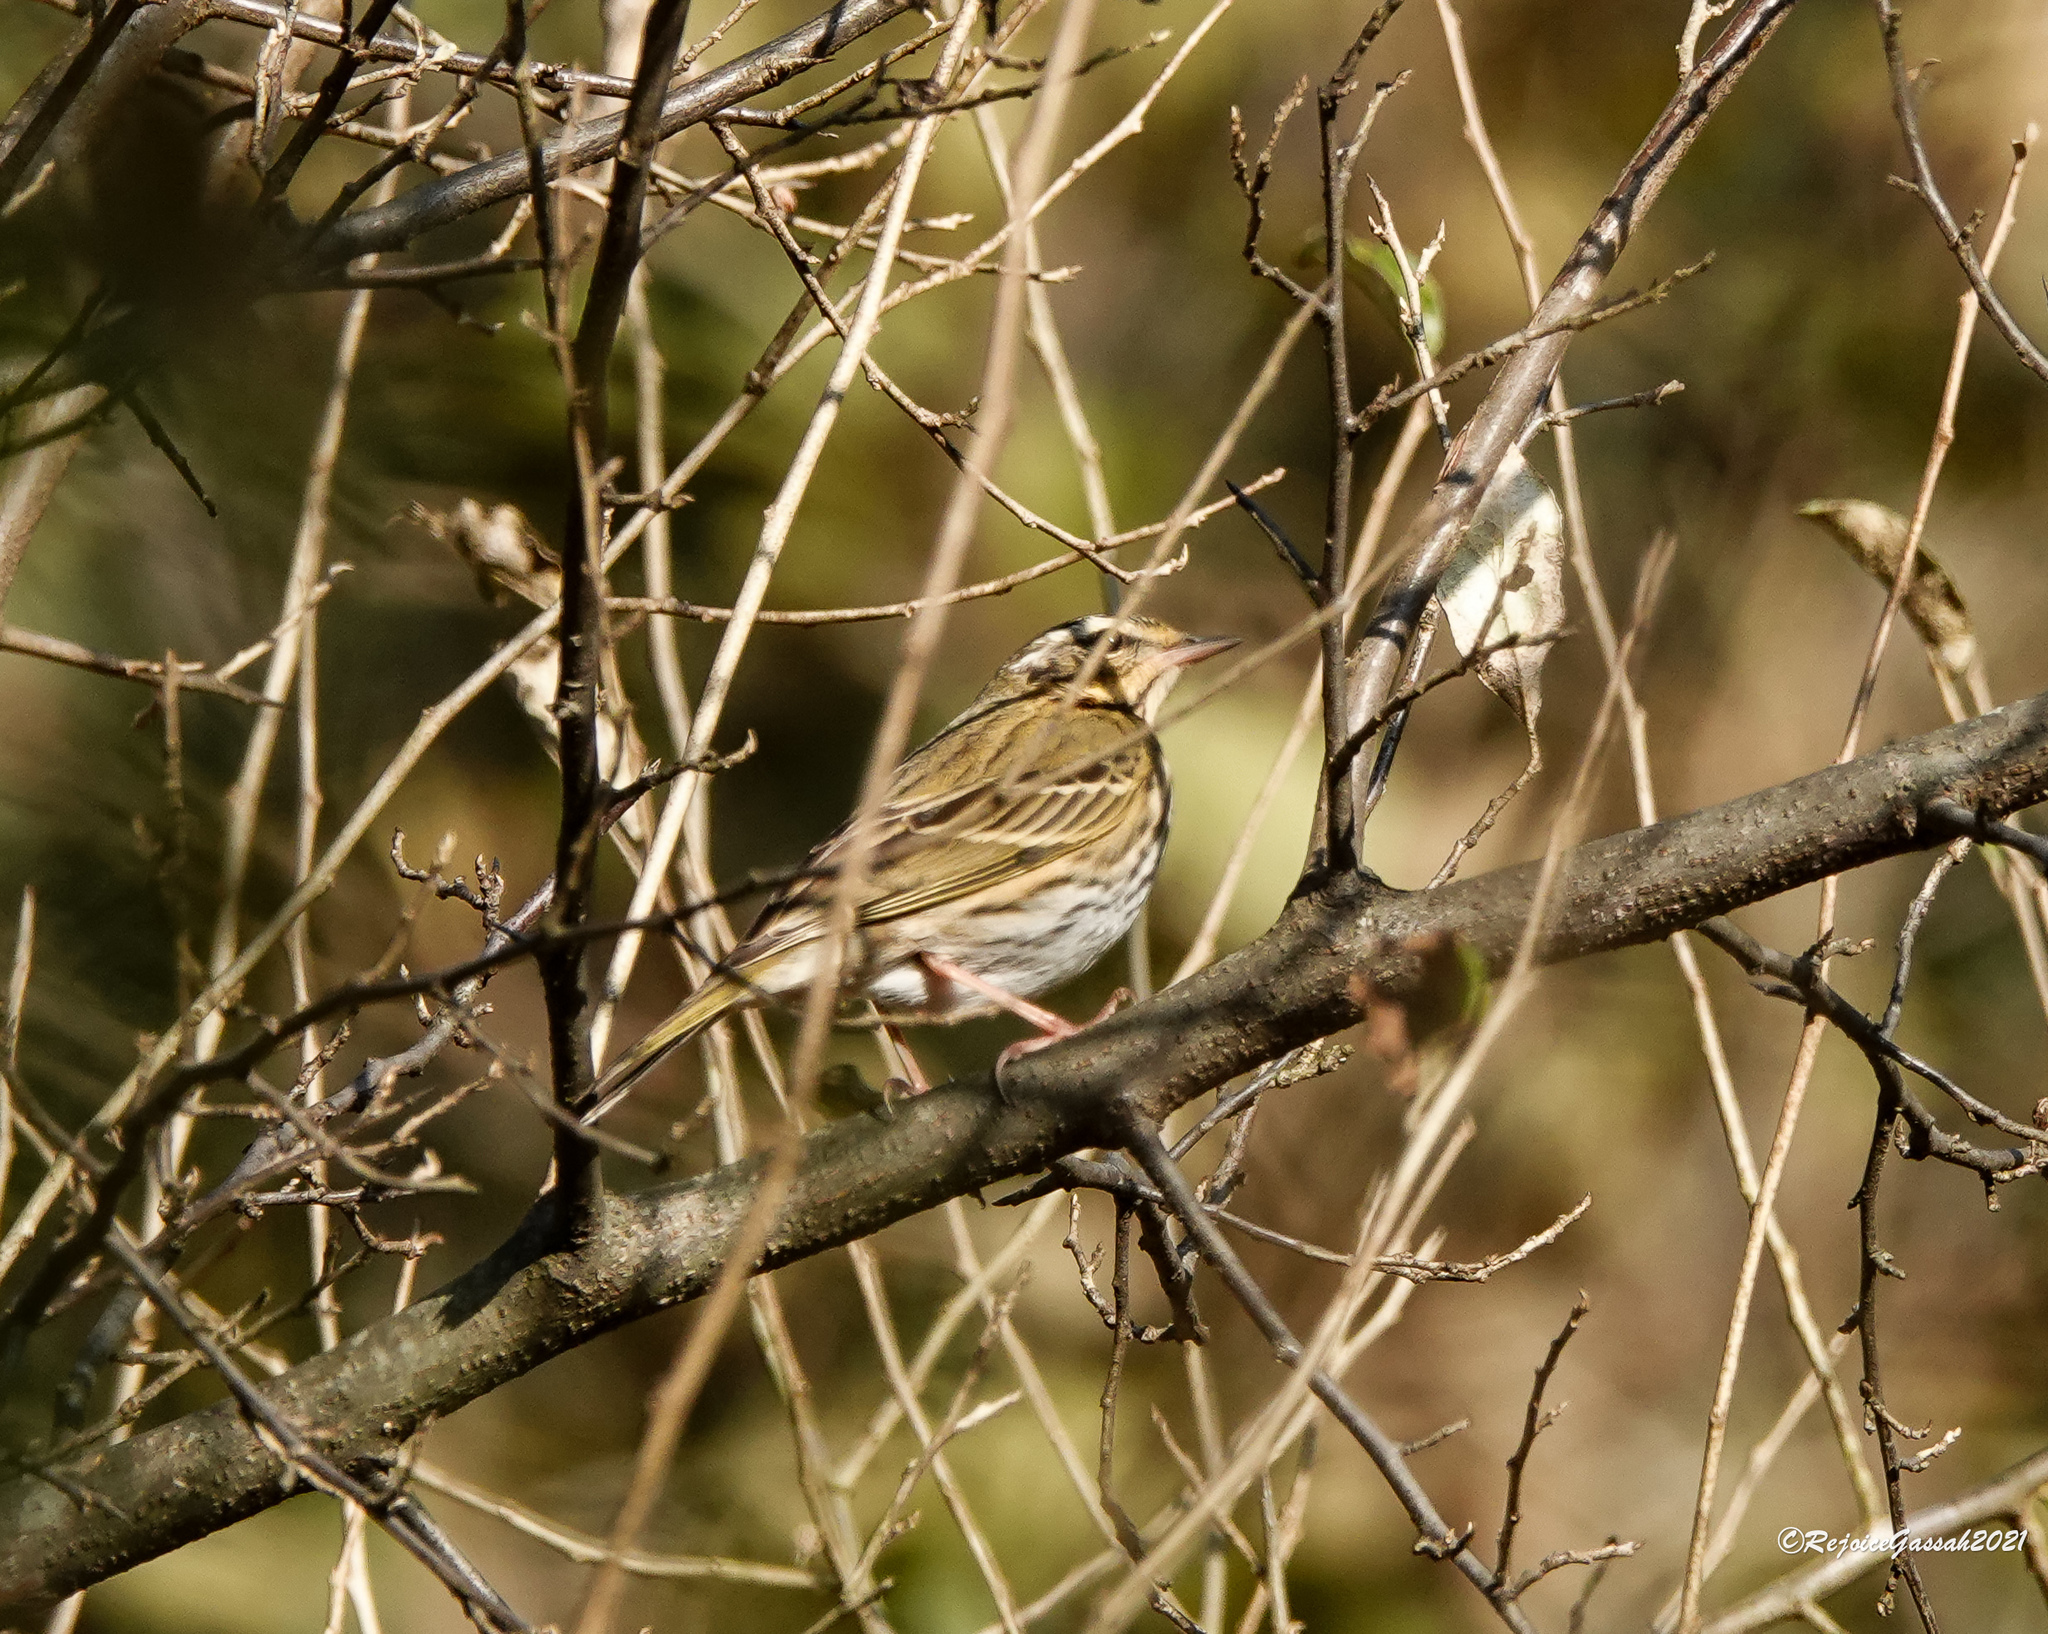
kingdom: Animalia
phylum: Chordata
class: Aves
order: Passeriformes
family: Motacillidae
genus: Anthus
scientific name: Anthus hodgsoni
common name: Olive-backed pipit
